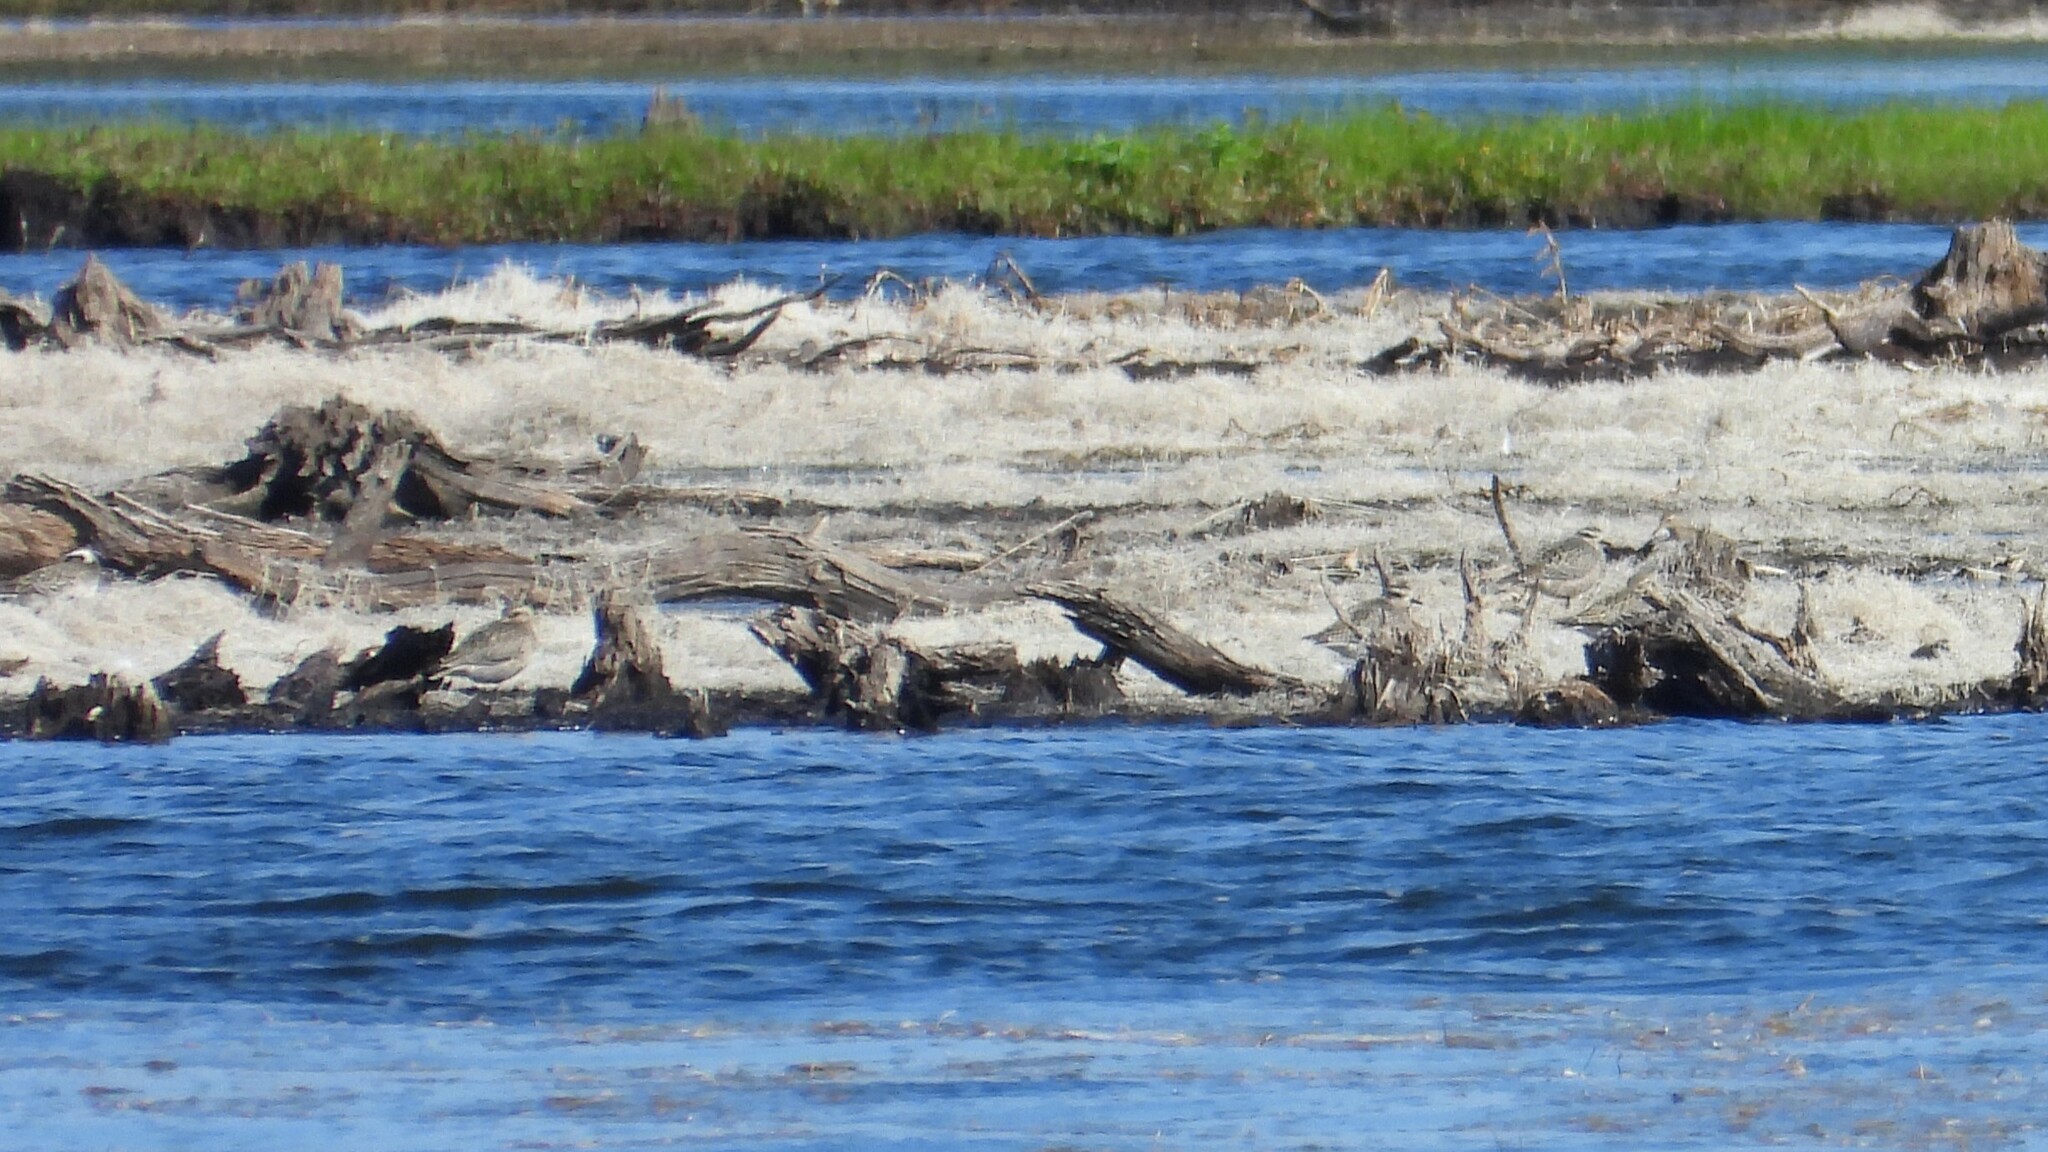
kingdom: Animalia
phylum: Chordata
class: Aves
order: Charadriiformes
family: Charadriidae
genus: Pluvialis
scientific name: Pluvialis dominica
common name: American golden plover
